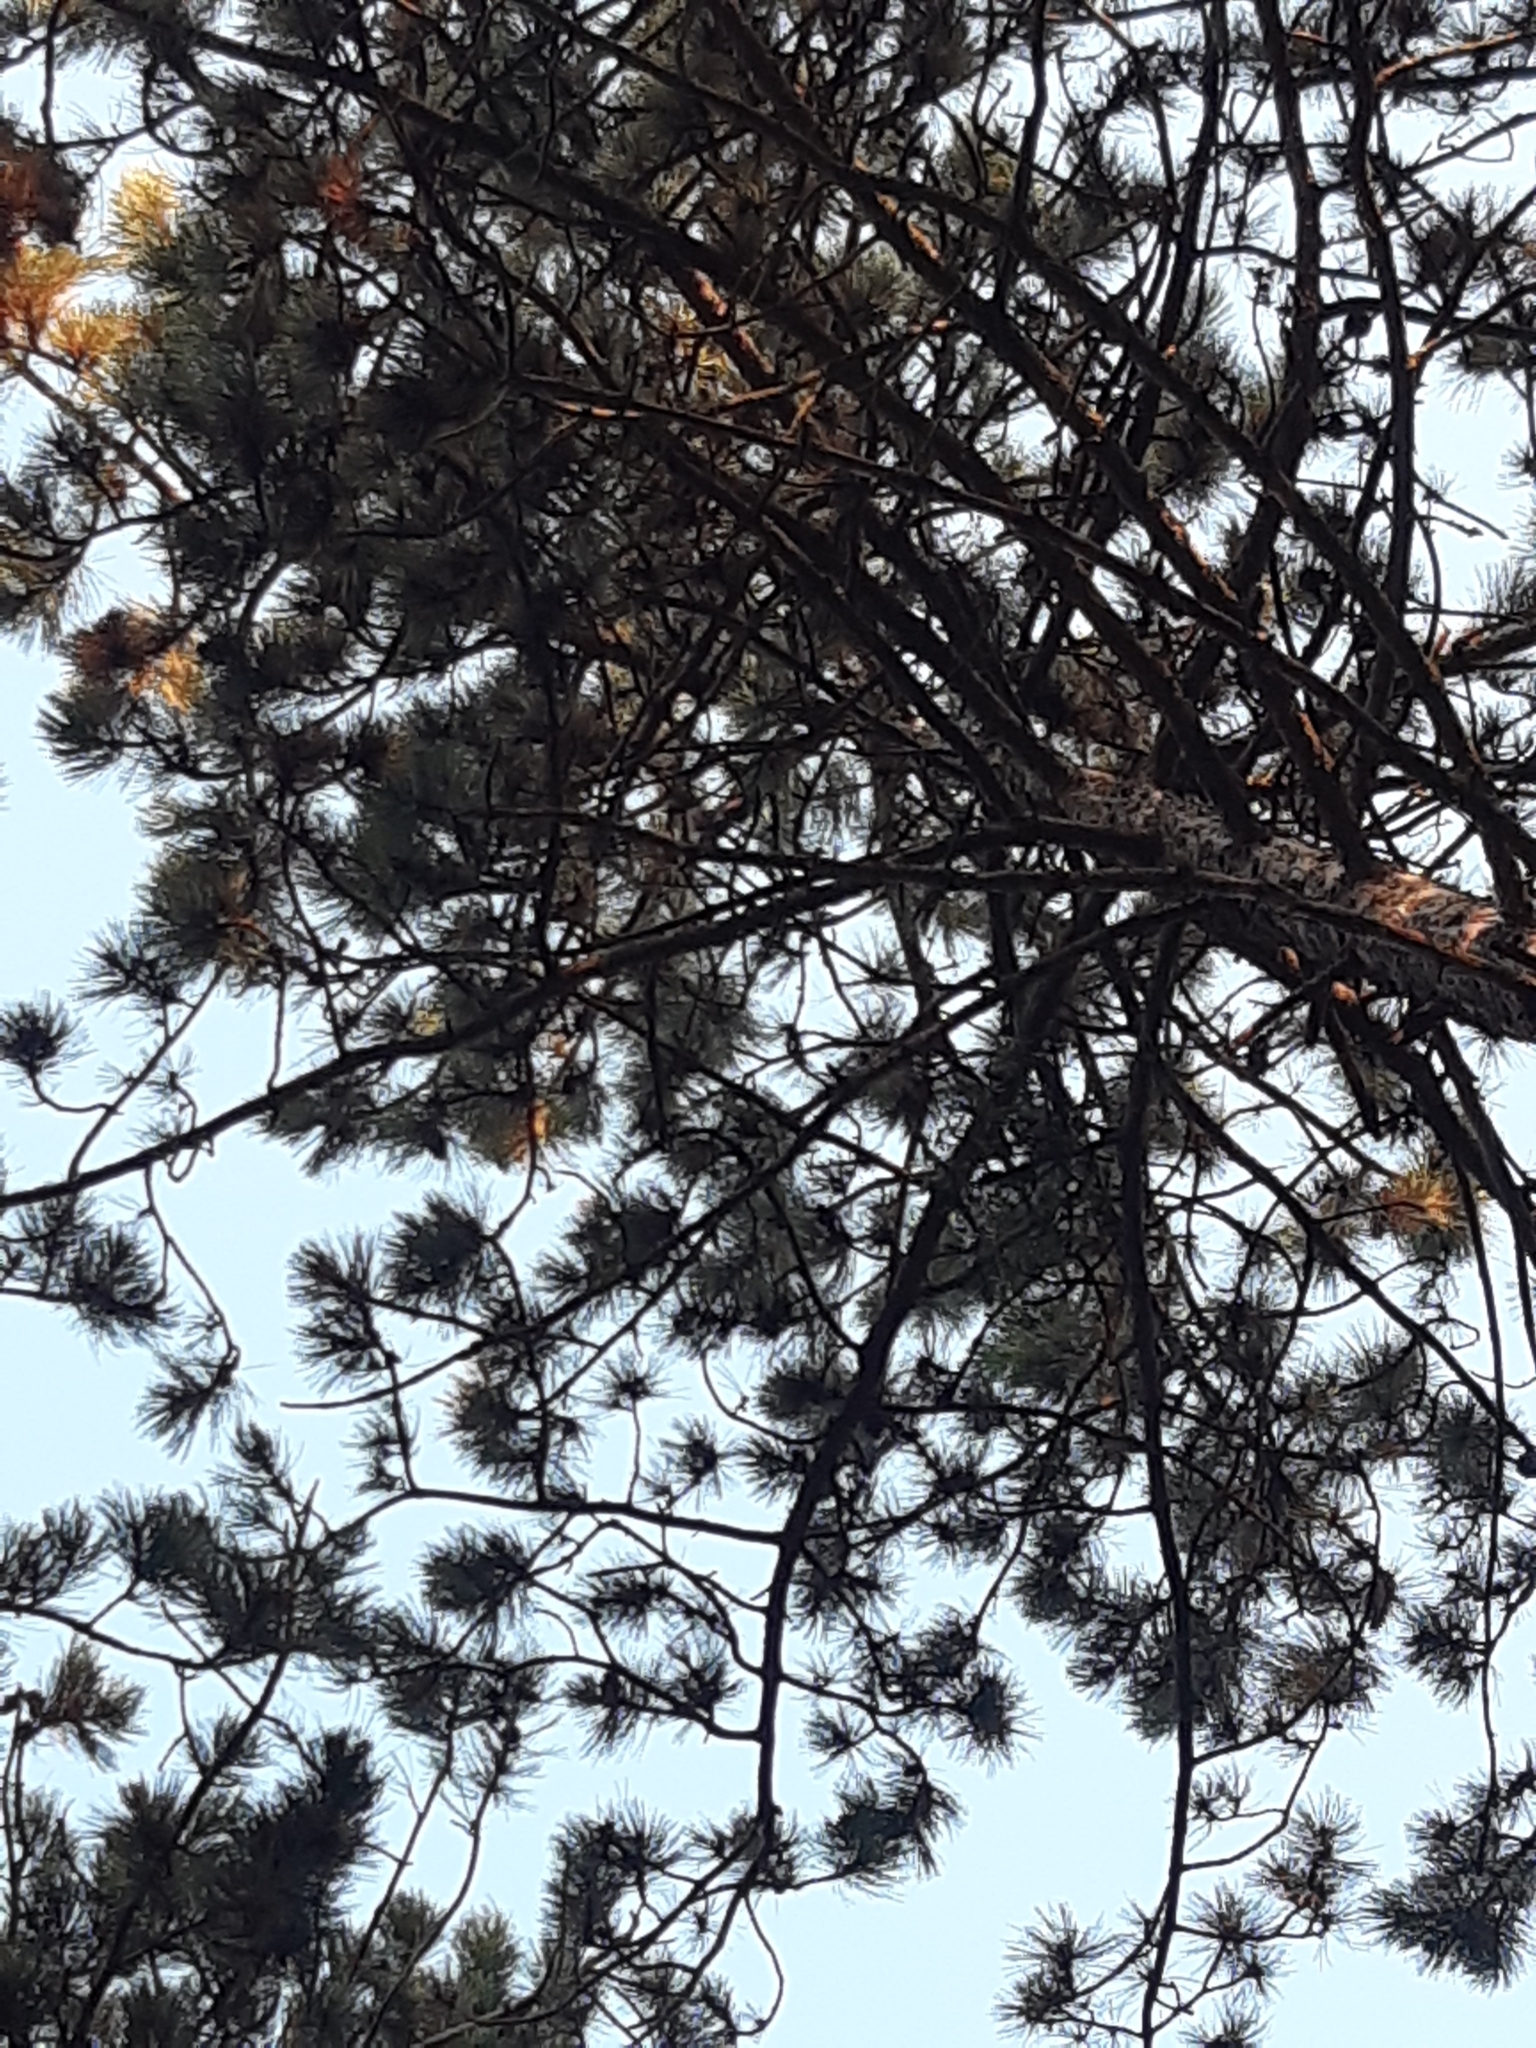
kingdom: Plantae
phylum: Tracheophyta
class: Pinopsida
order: Pinales
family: Pinaceae
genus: Pinus
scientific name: Pinus nigra
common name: Austrian pine
